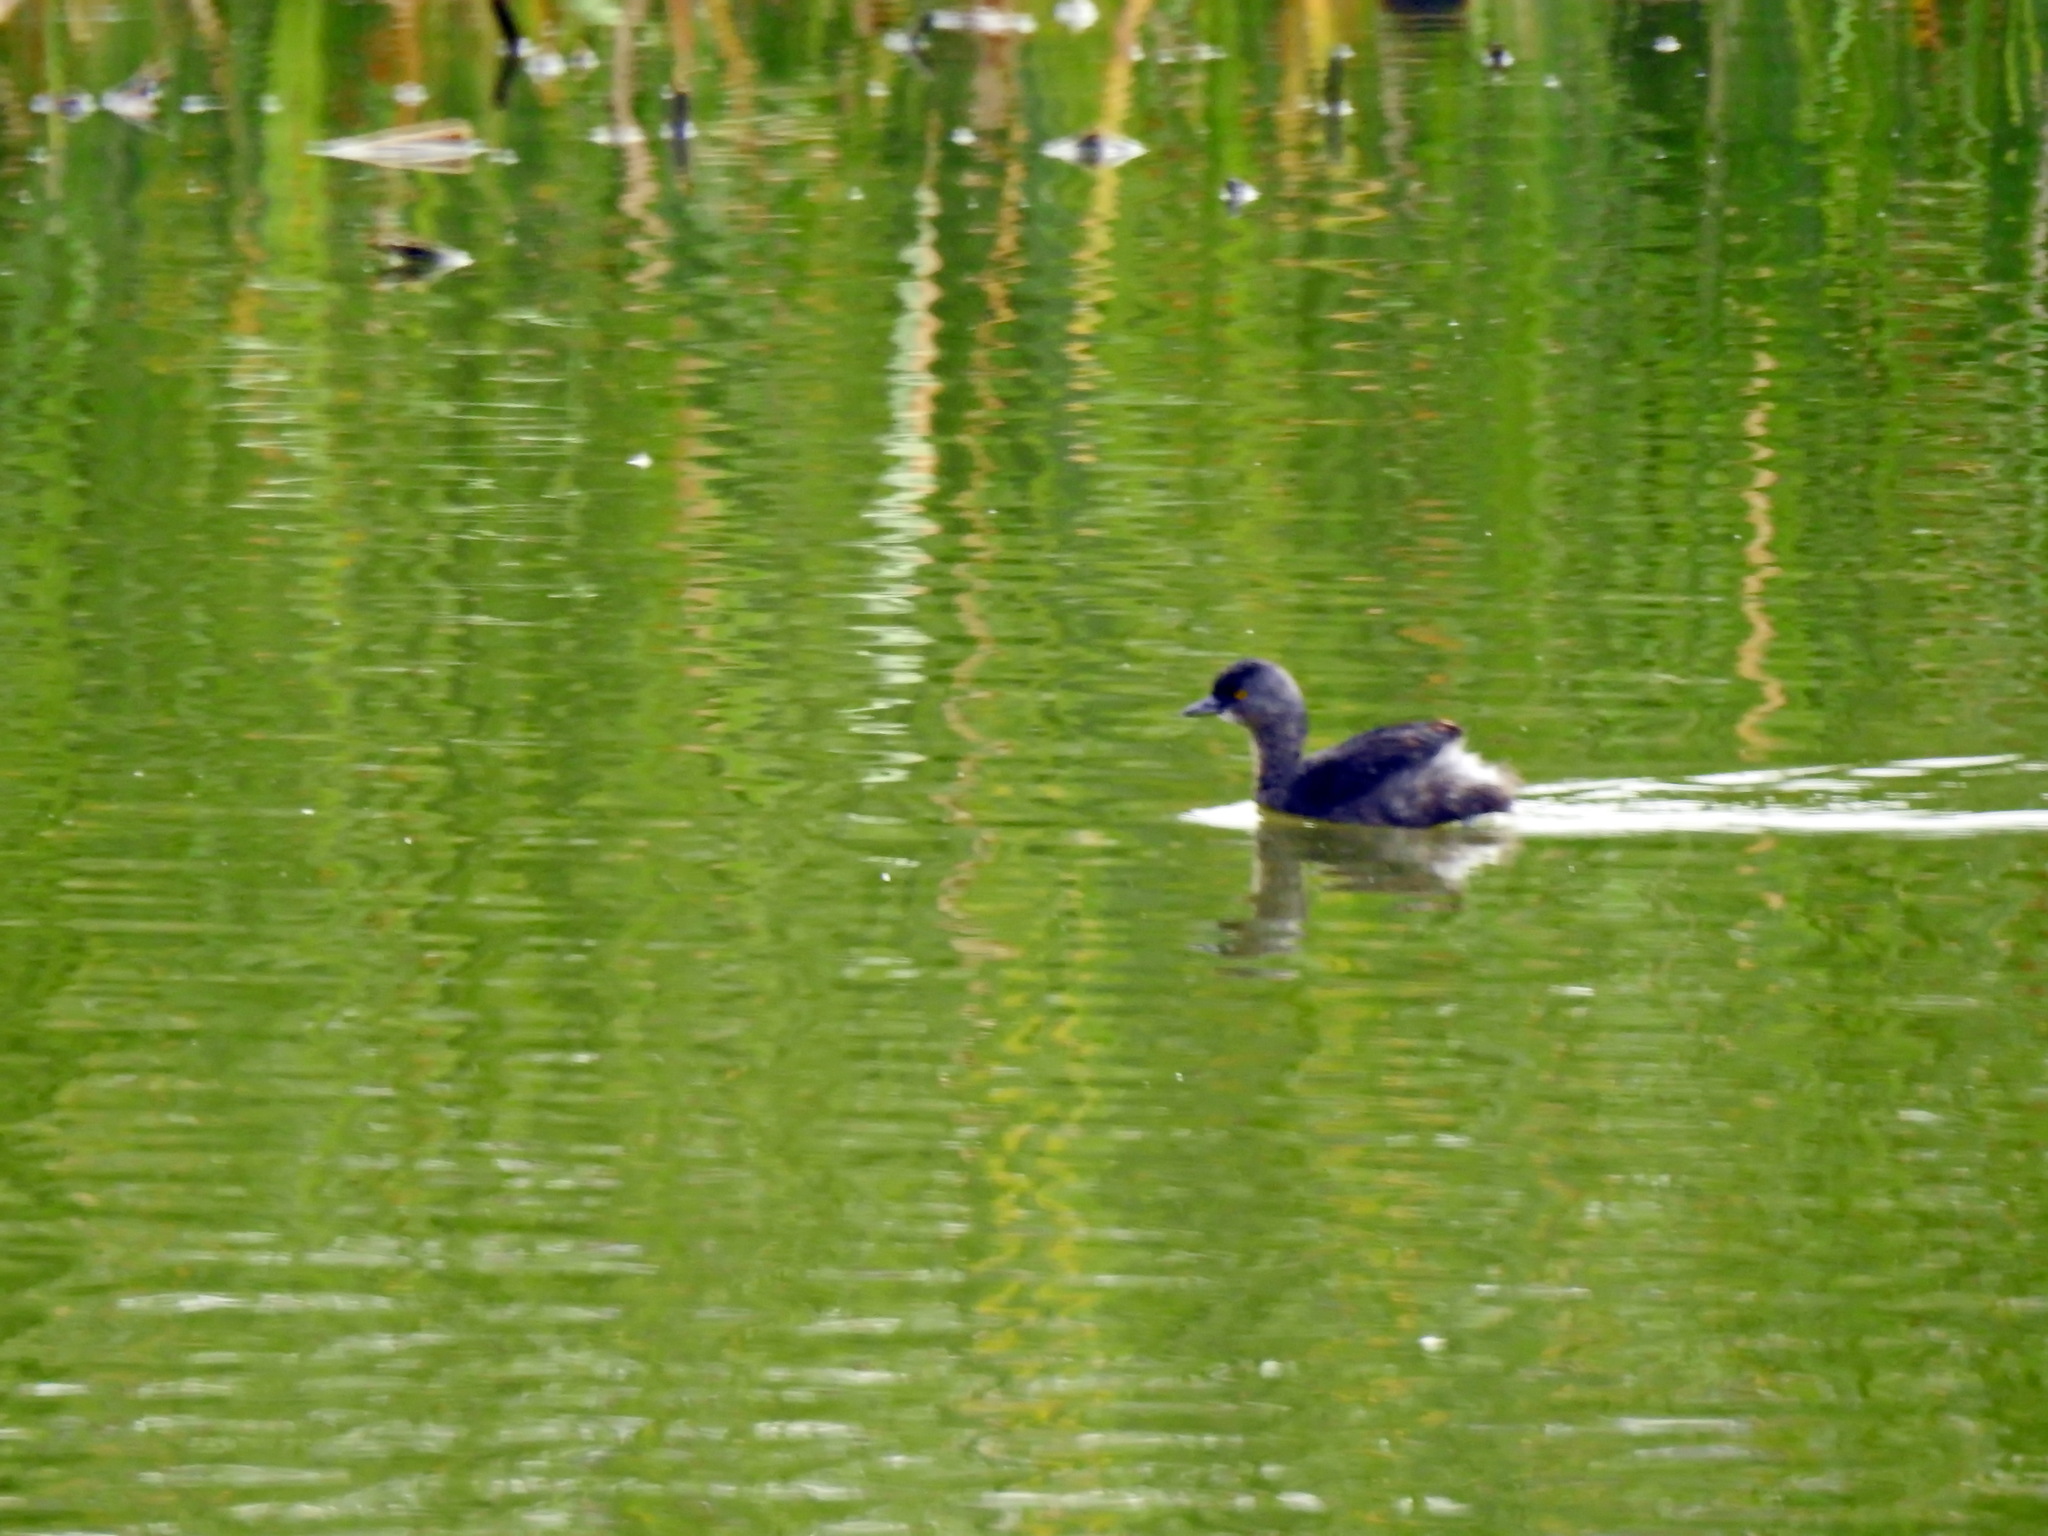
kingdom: Animalia
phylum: Chordata
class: Aves
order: Podicipediformes
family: Podicipedidae
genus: Tachybaptus
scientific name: Tachybaptus dominicus
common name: Least grebe
